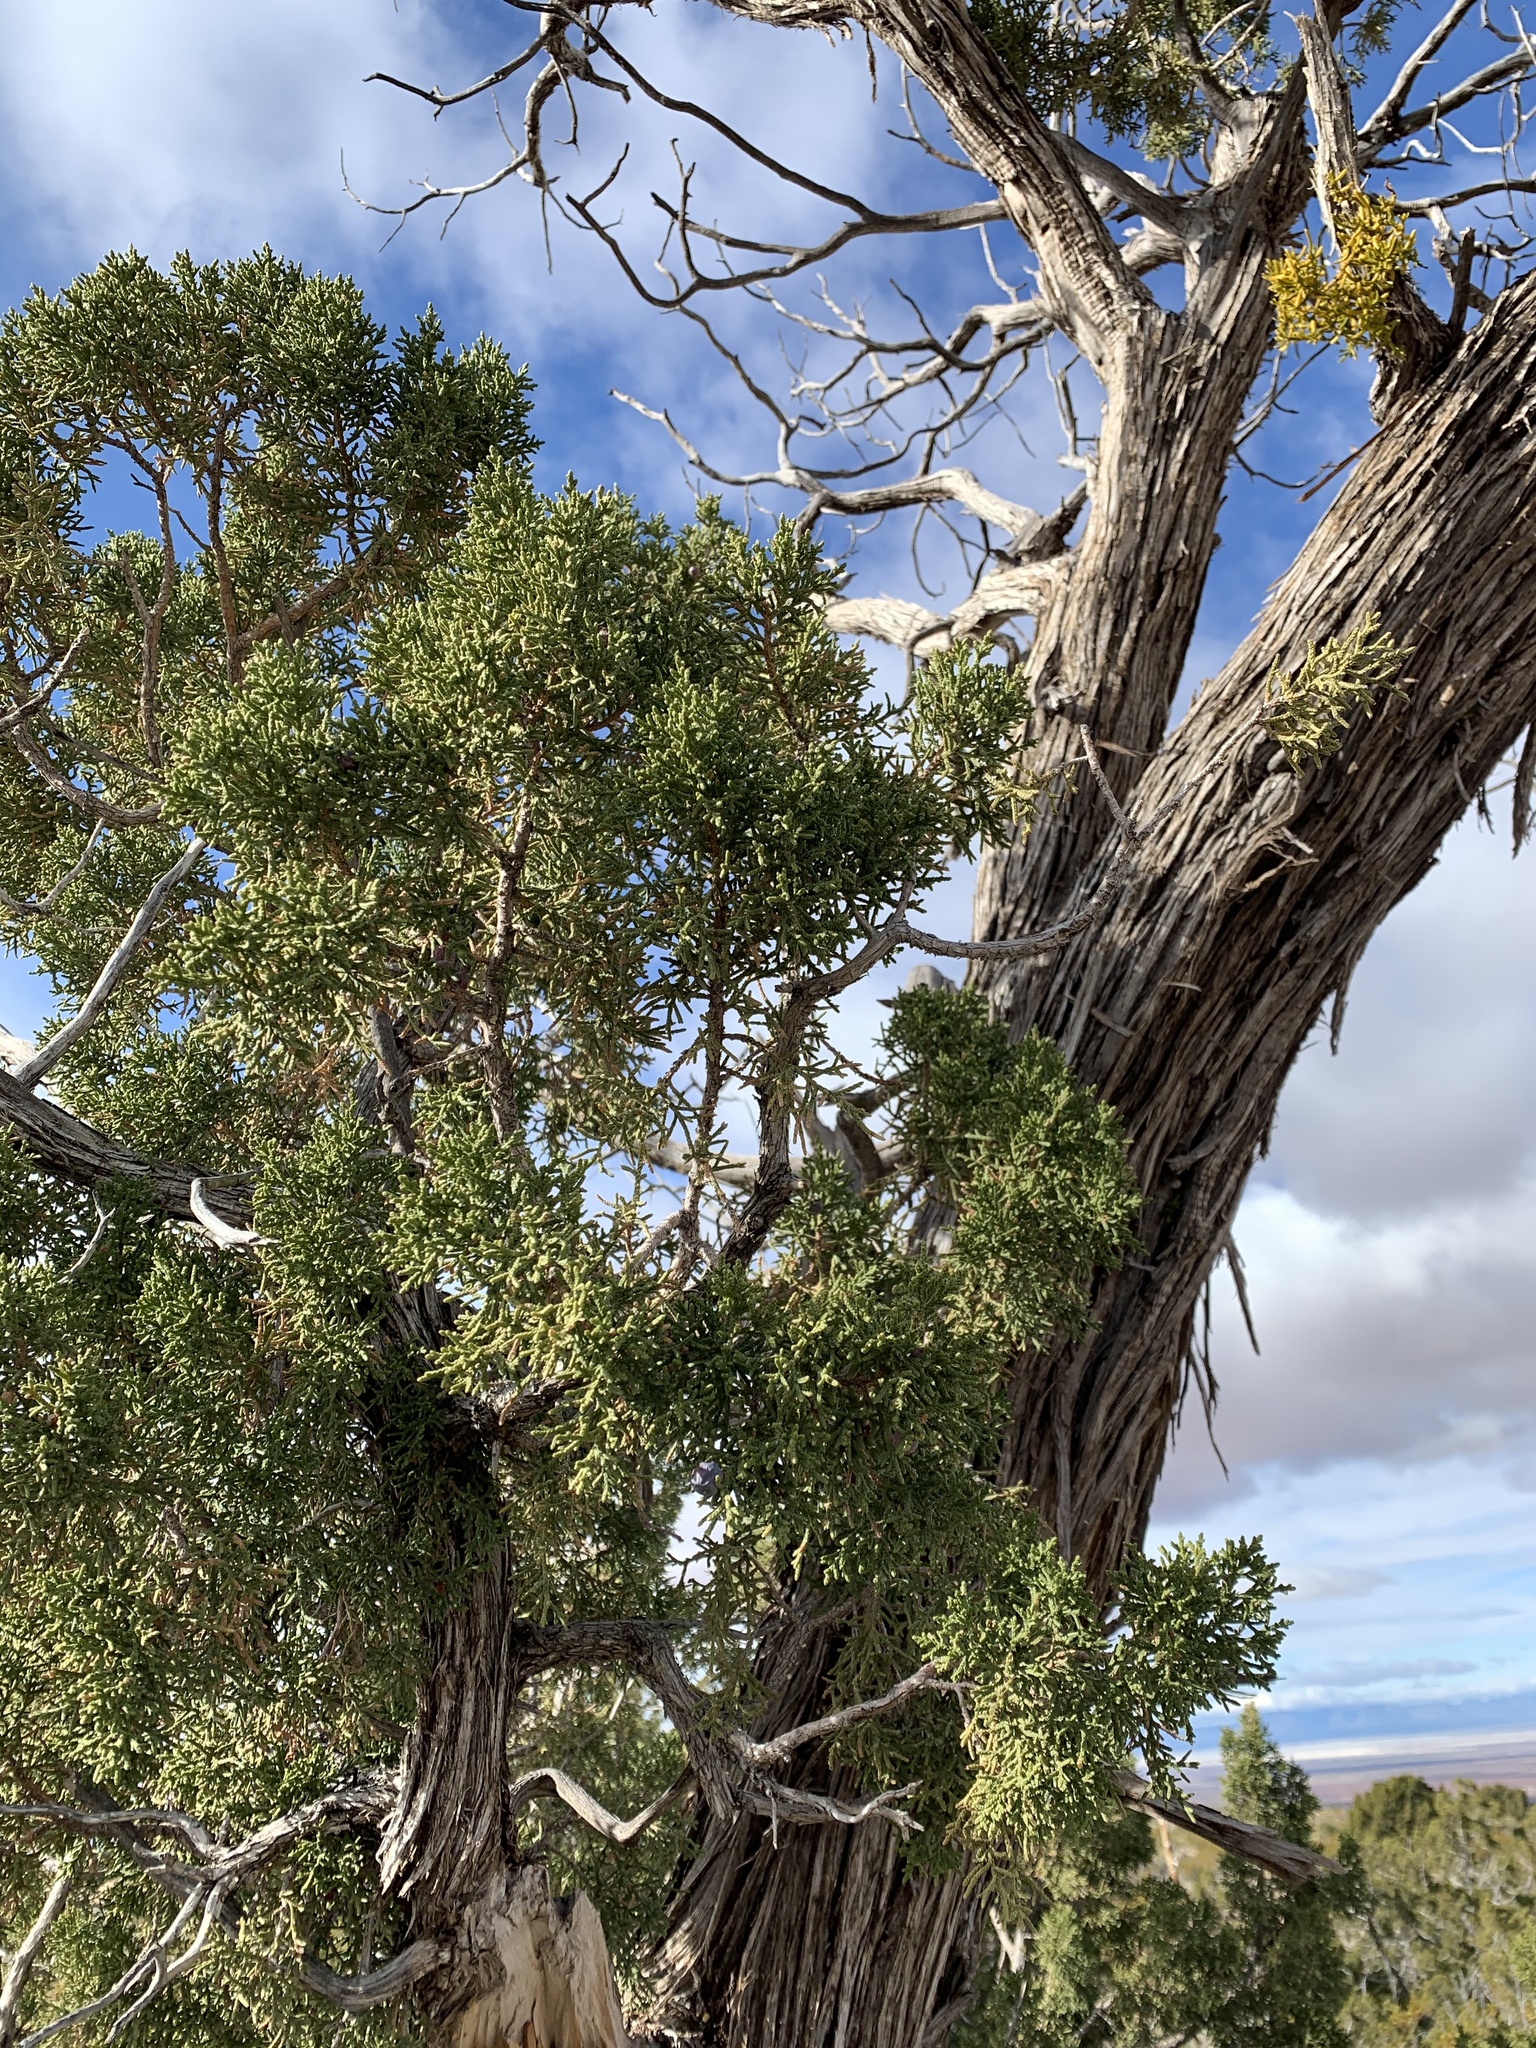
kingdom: Plantae
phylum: Tracheophyta
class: Pinopsida
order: Pinales
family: Cupressaceae
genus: Juniperus
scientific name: Juniperus monosperma
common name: One-seed juniper
